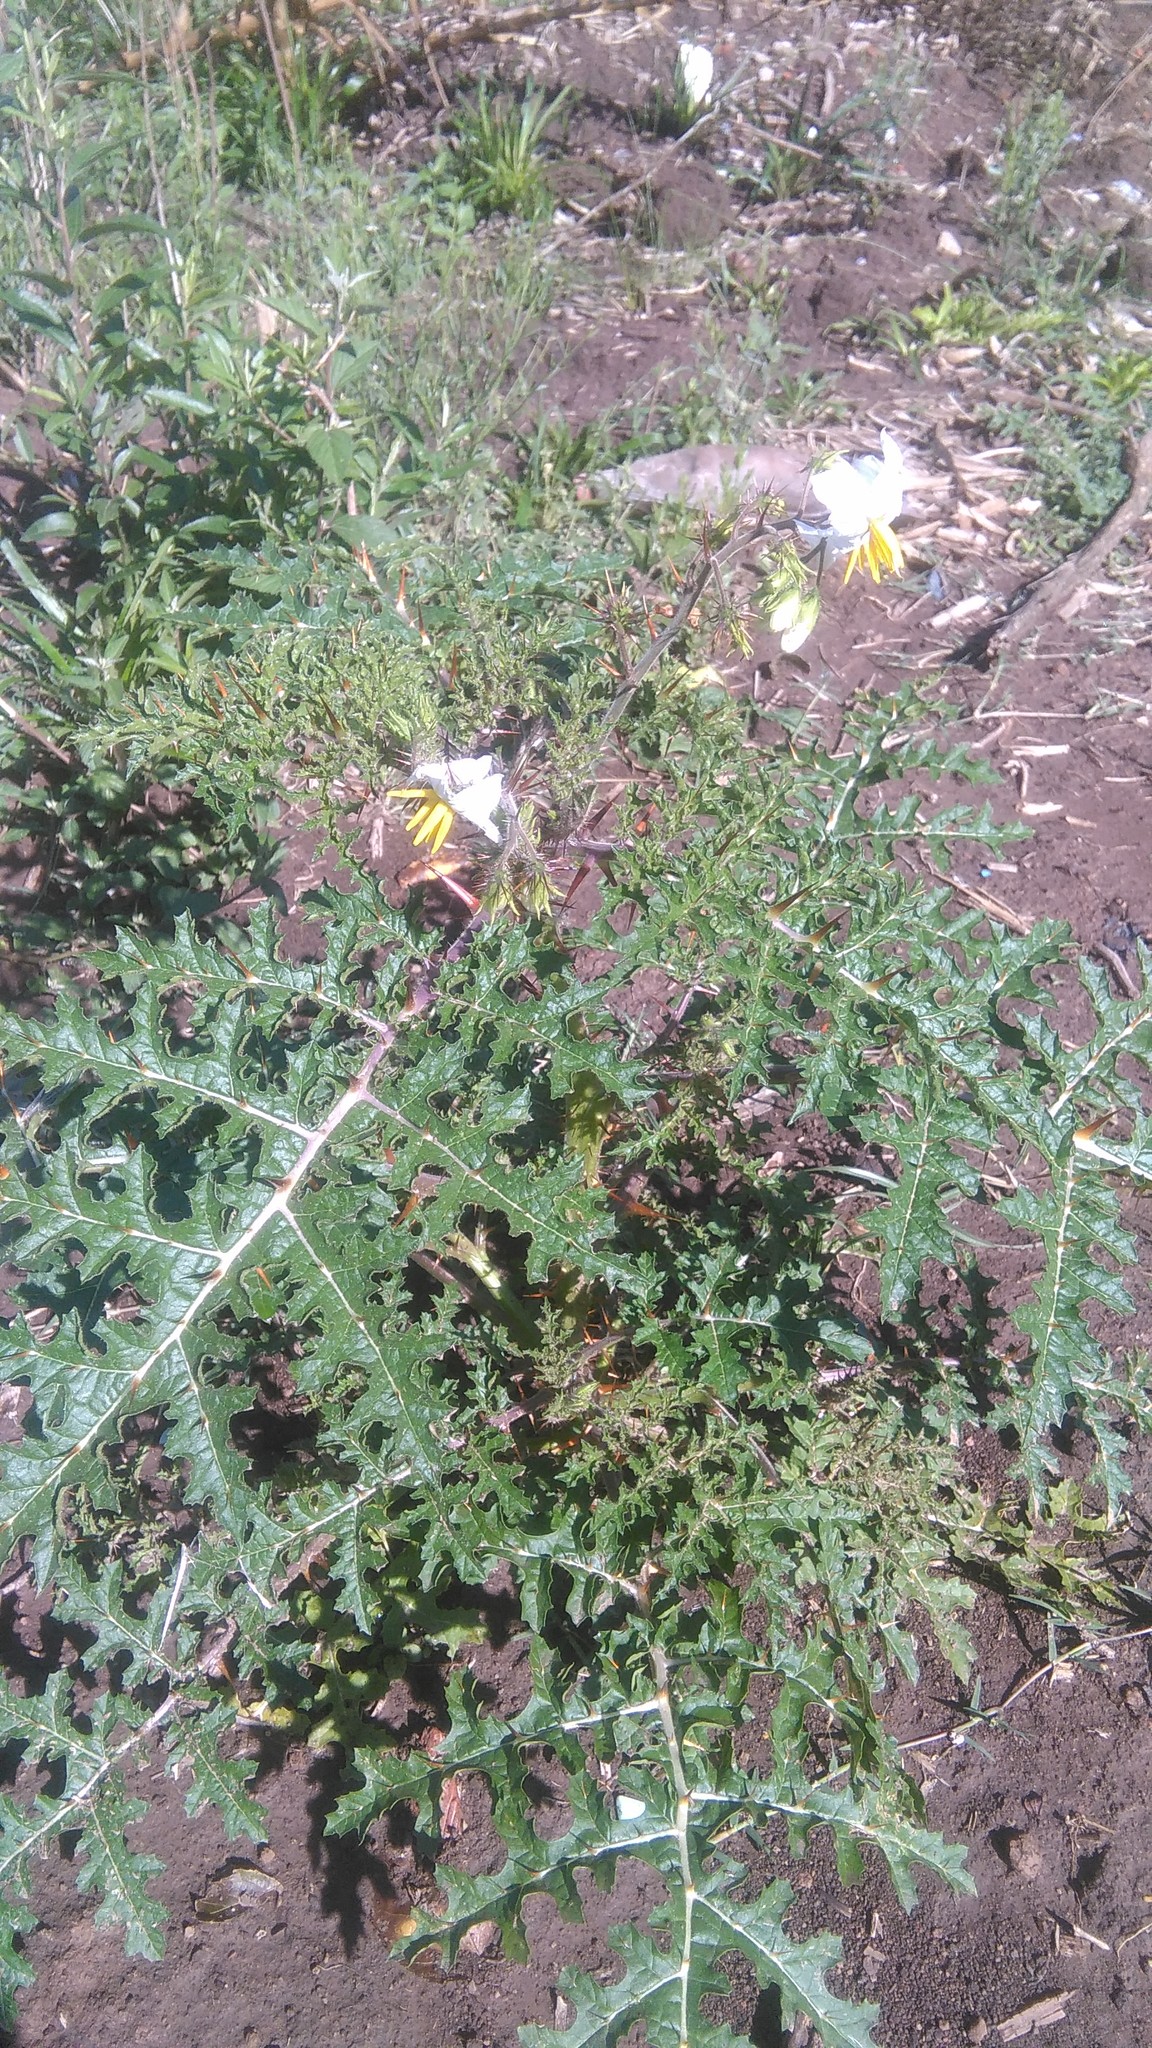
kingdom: Plantae
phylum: Tracheophyta
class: Magnoliopsida
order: Solanales
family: Solanaceae
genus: Solanum
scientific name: Solanum sisymbriifolium
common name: Red buffalo-bur
